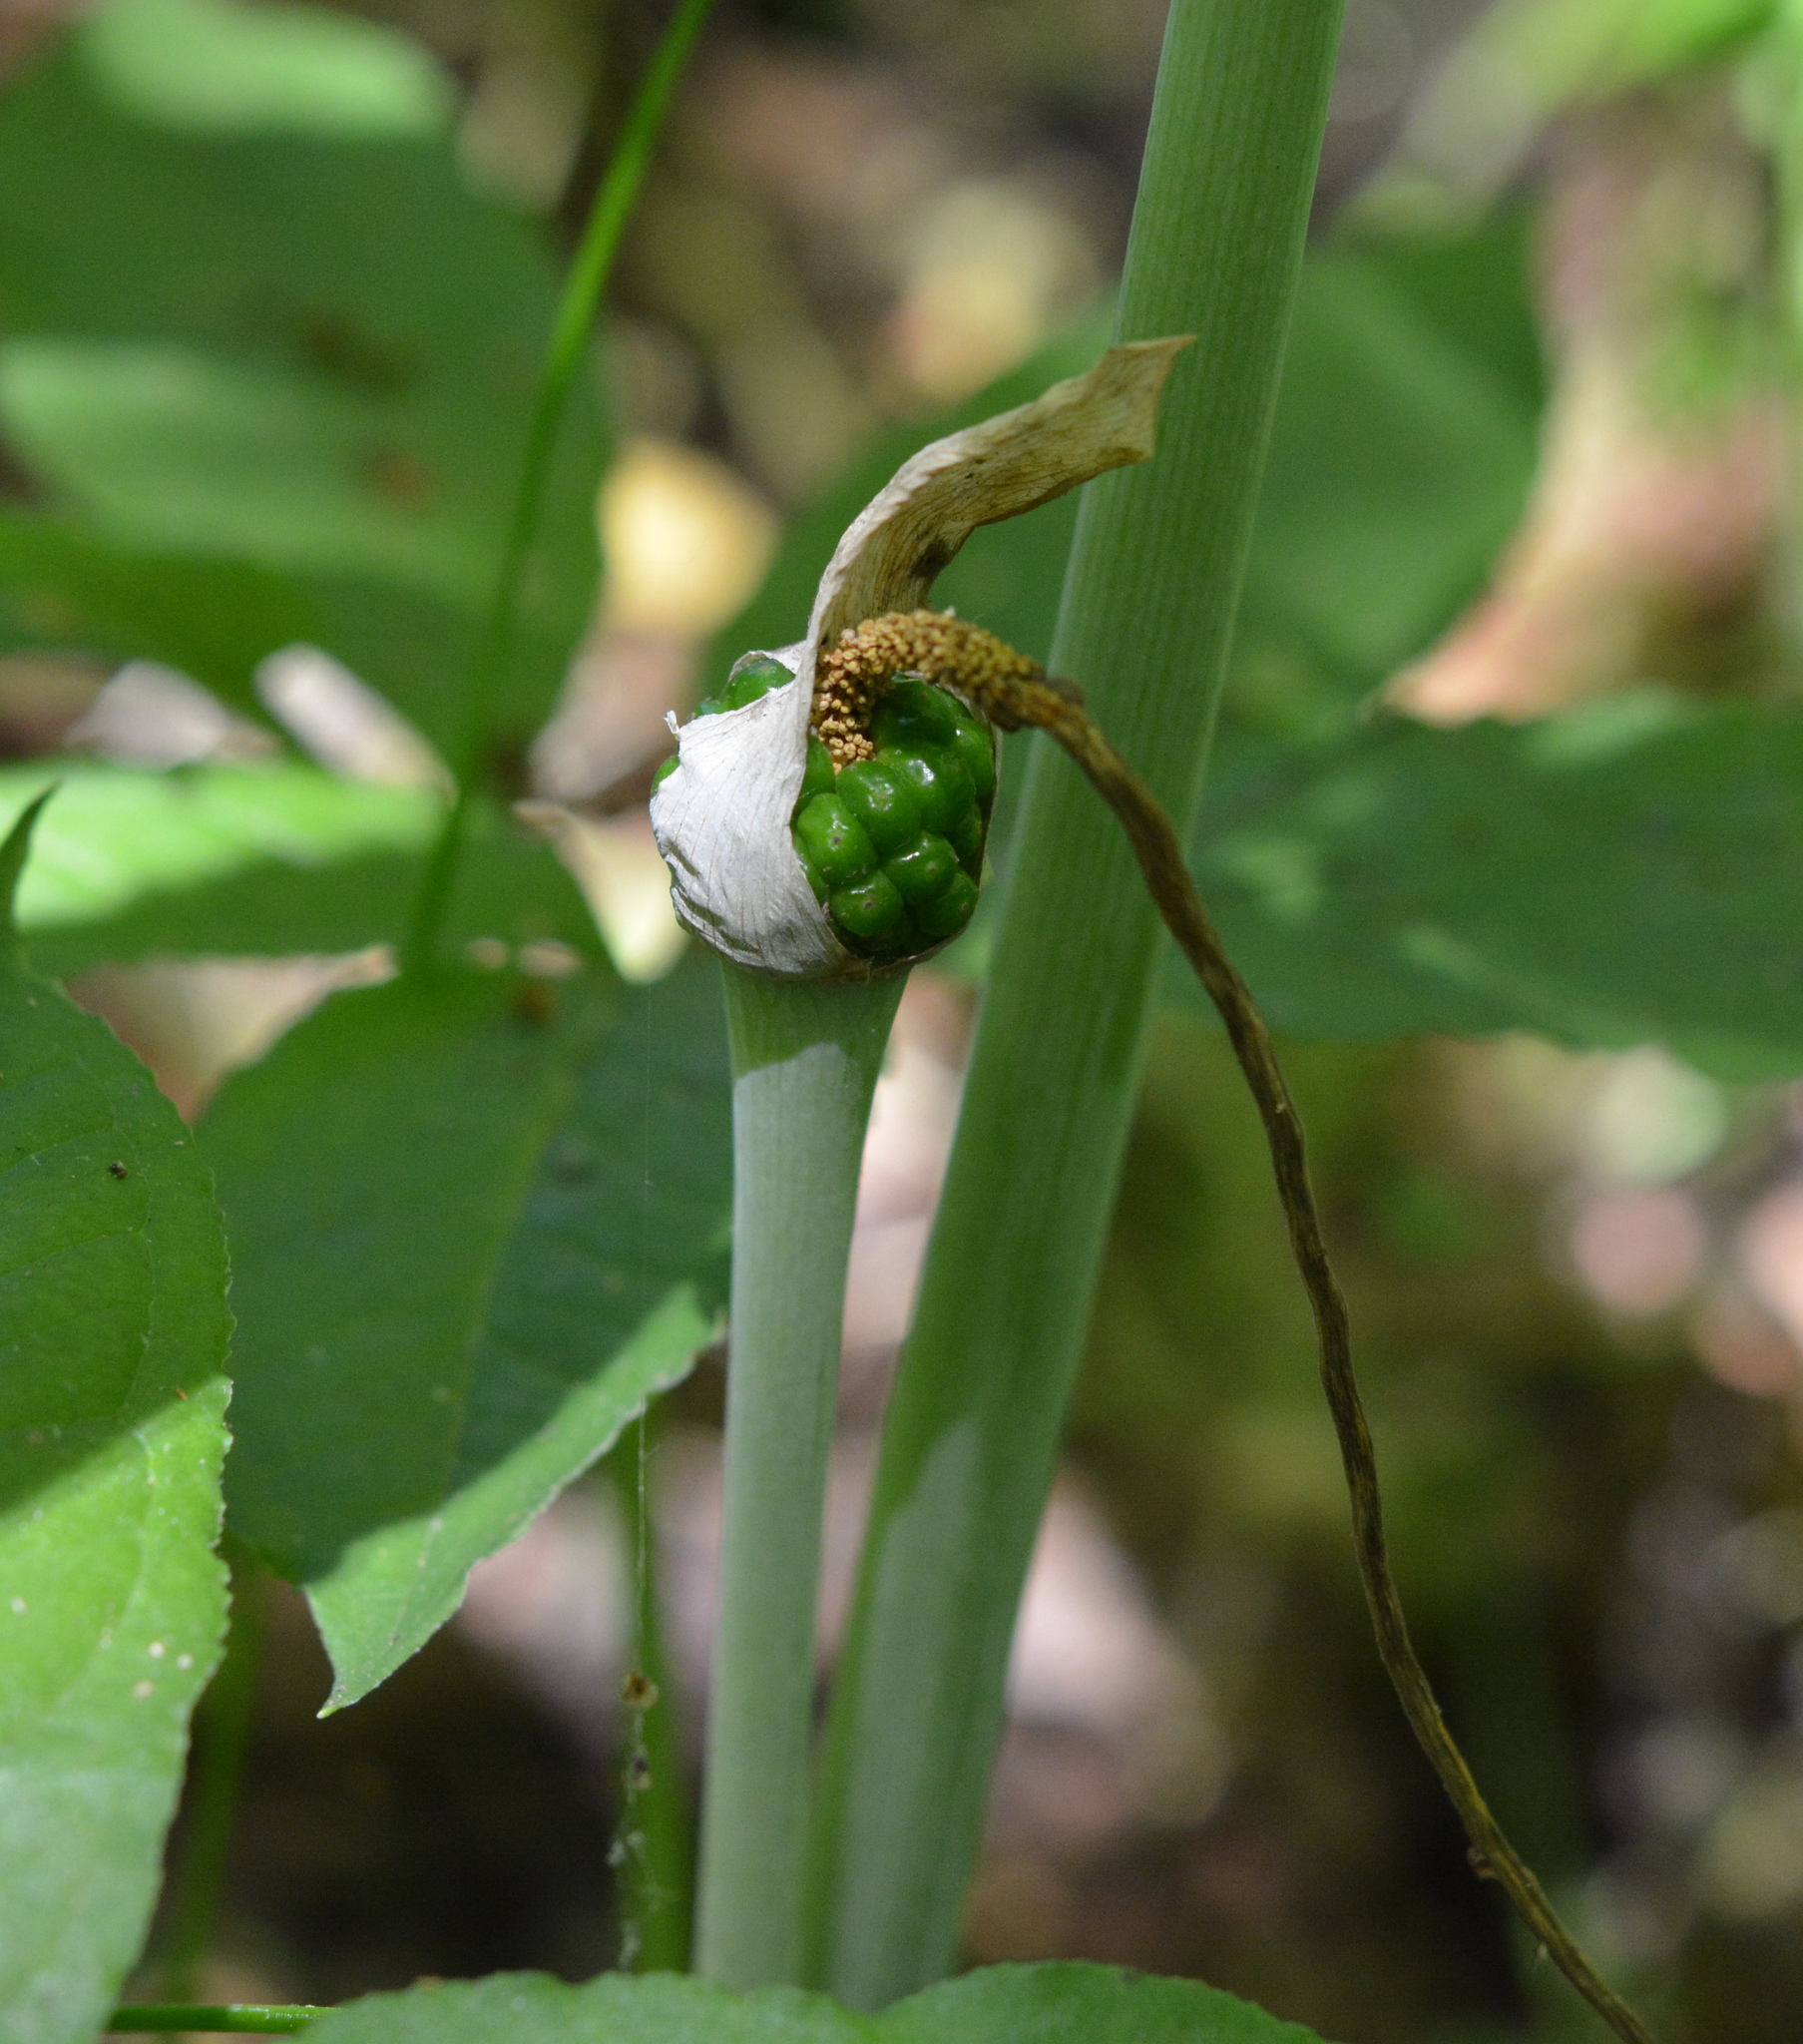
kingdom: Plantae
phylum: Tracheophyta
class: Liliopsida
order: Alismatales
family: Araceae
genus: Arisaema
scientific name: Arisaema dracontium
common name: Dragon-arum
